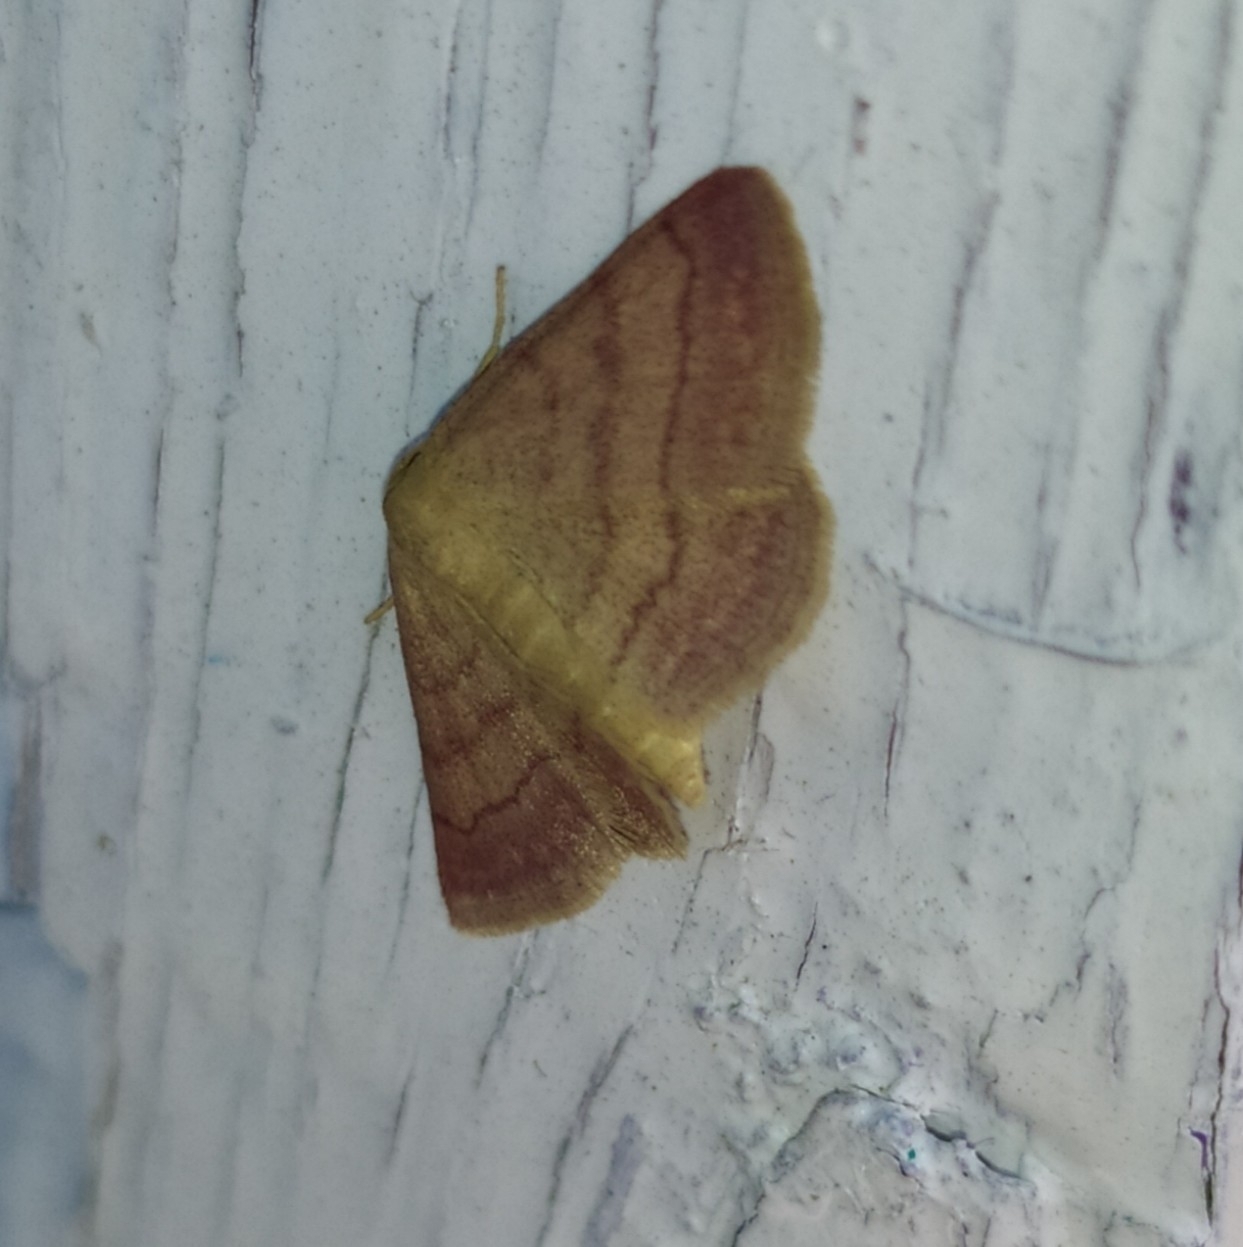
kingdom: Animalia
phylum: Arthropoda
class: Insecta
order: Lepidoptera
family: Geometridae
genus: Scopula
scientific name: Scopula rubiginata
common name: Tawny wave
